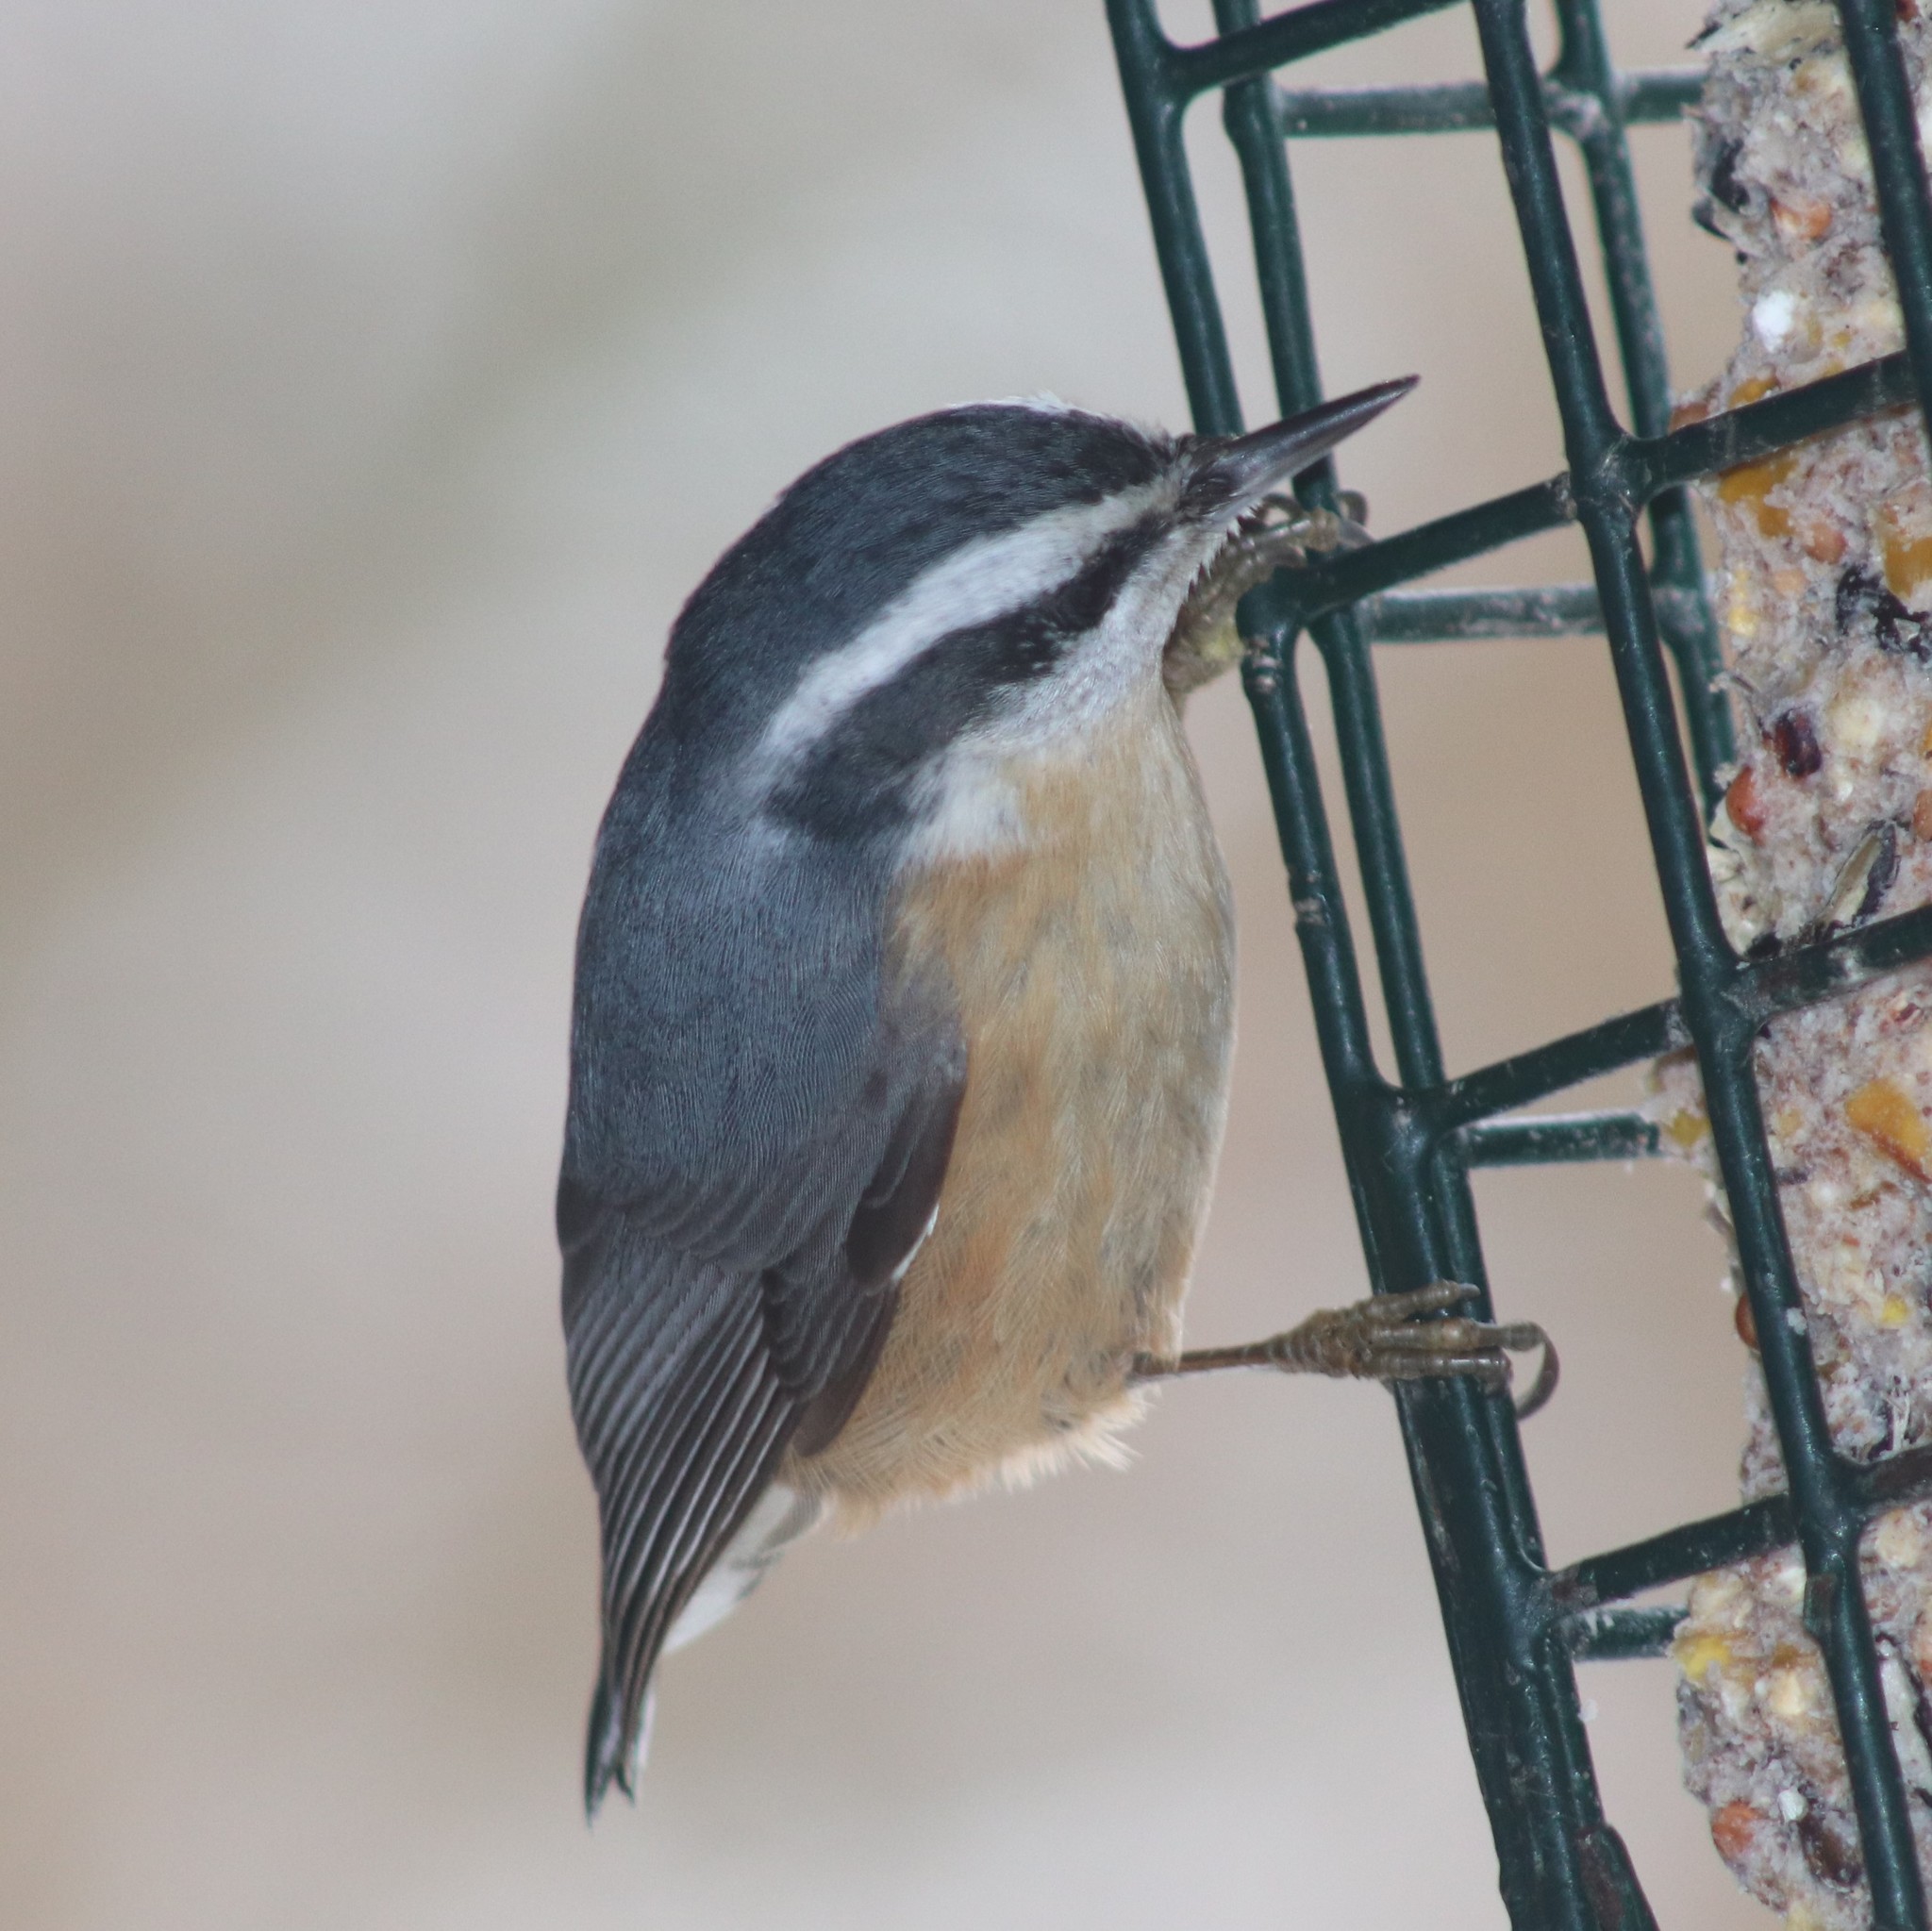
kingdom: Animalia
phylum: Chordata
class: Aves
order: Passeriformes
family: Sittidae
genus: Sitta
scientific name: Sitta canadensis
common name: Red-breasted nuthatch
